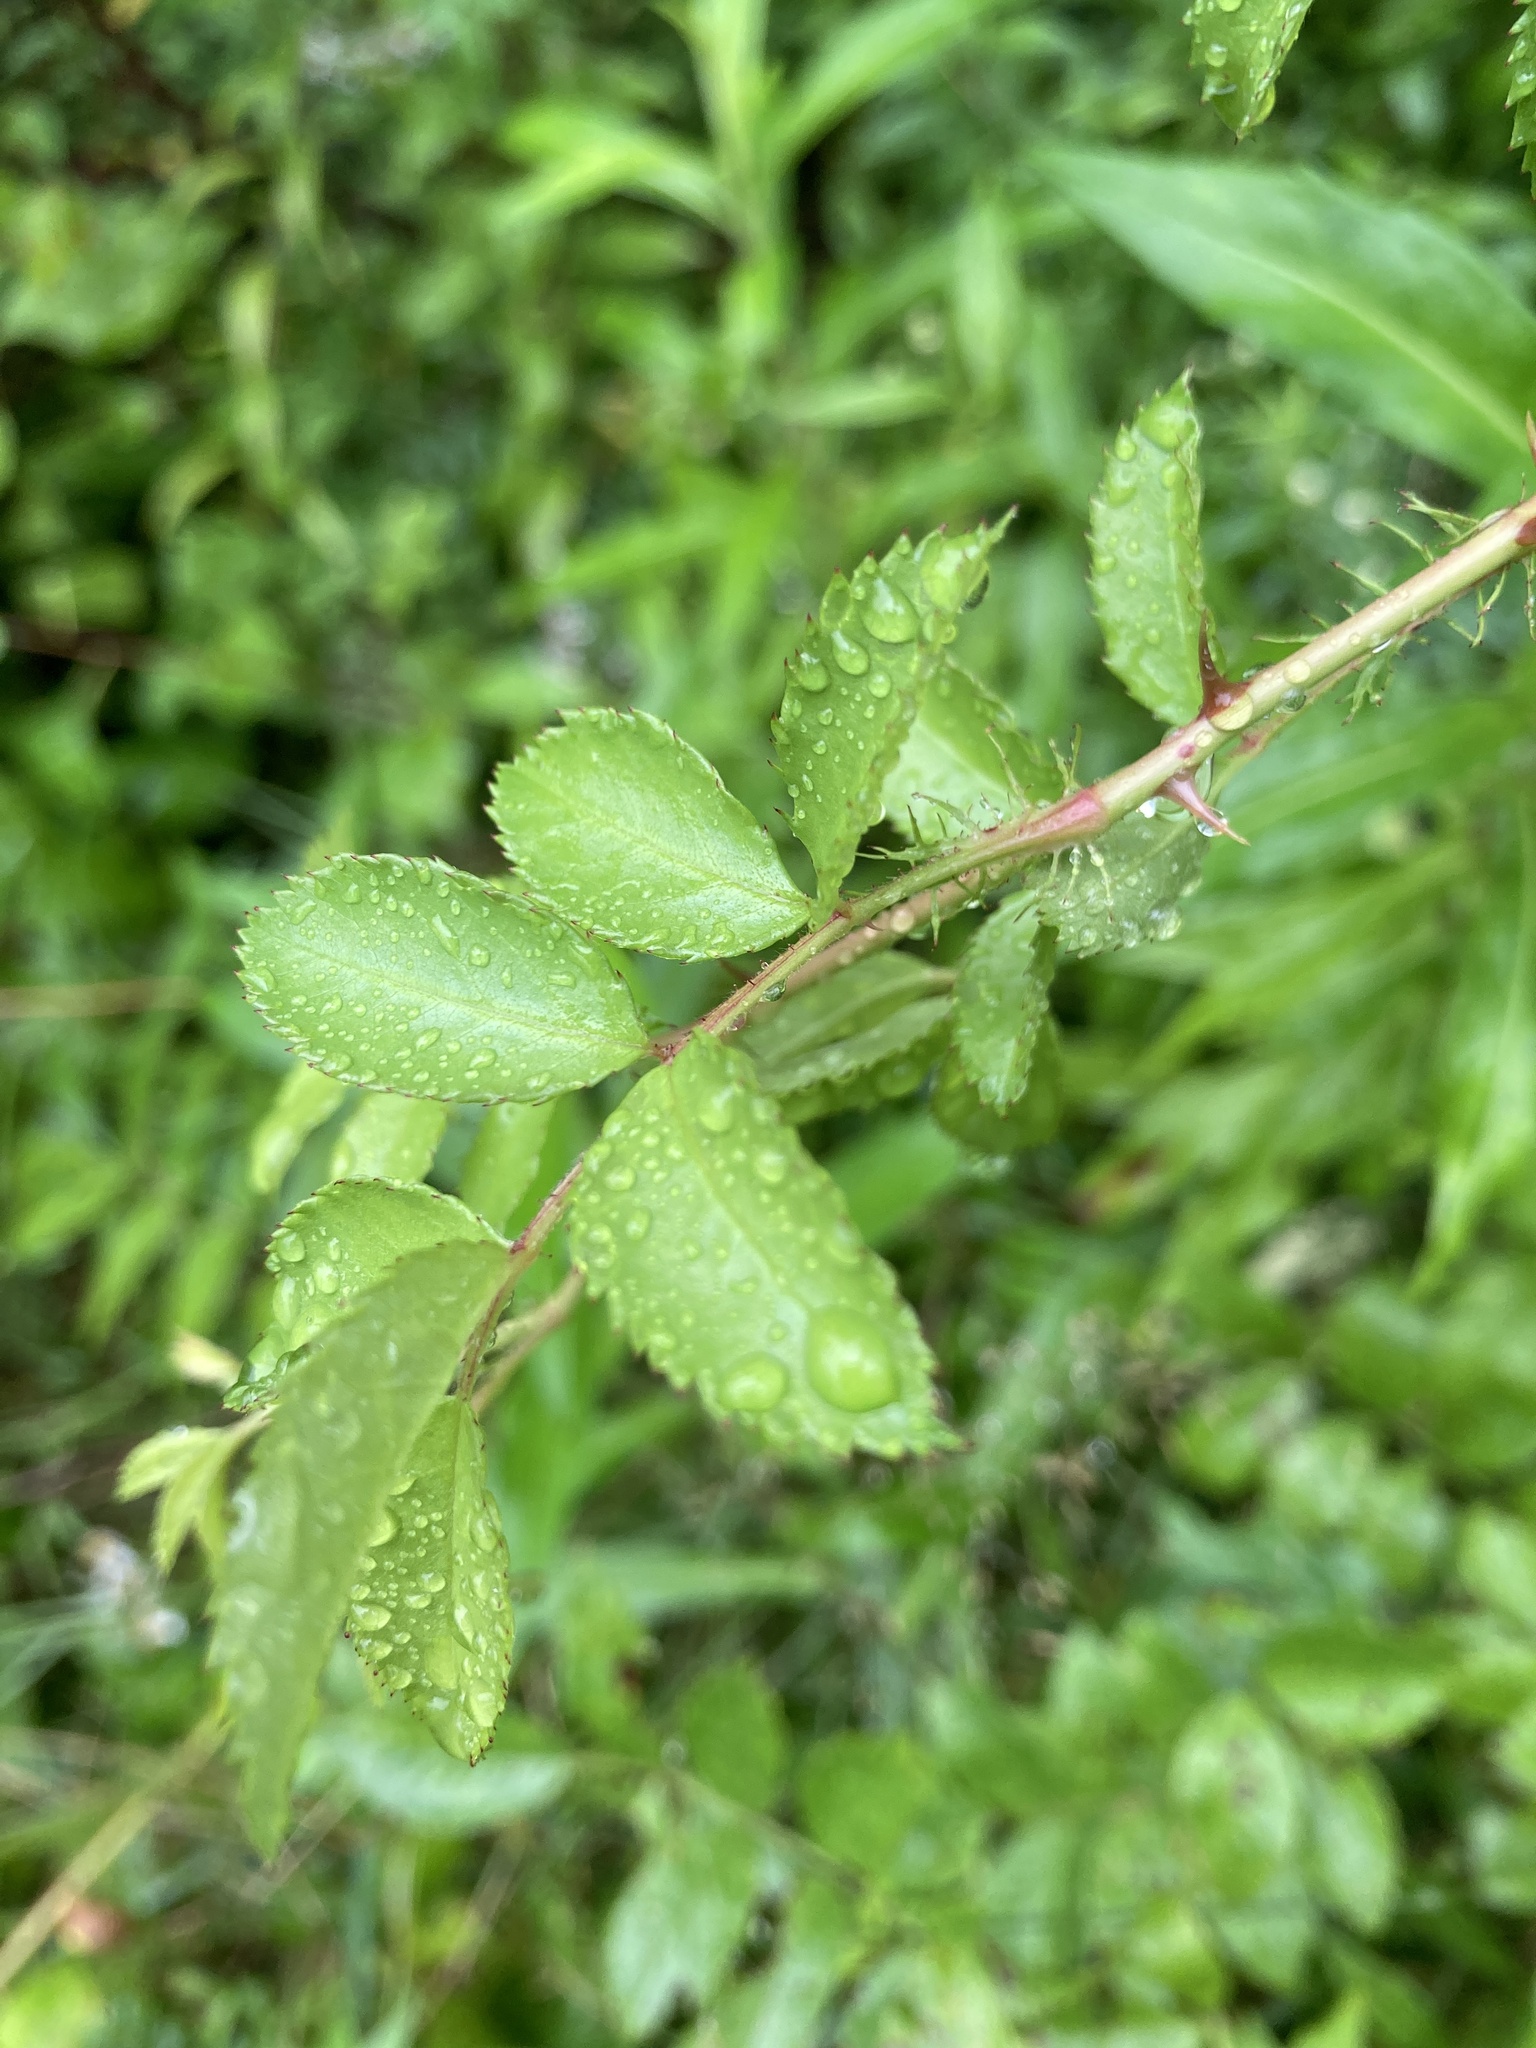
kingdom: Plantae
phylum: Tracheophyta
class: Magnoliopsida
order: Rosales
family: Rosaceae
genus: Rosa
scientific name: Rosa multiflora
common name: Multiflora rose
